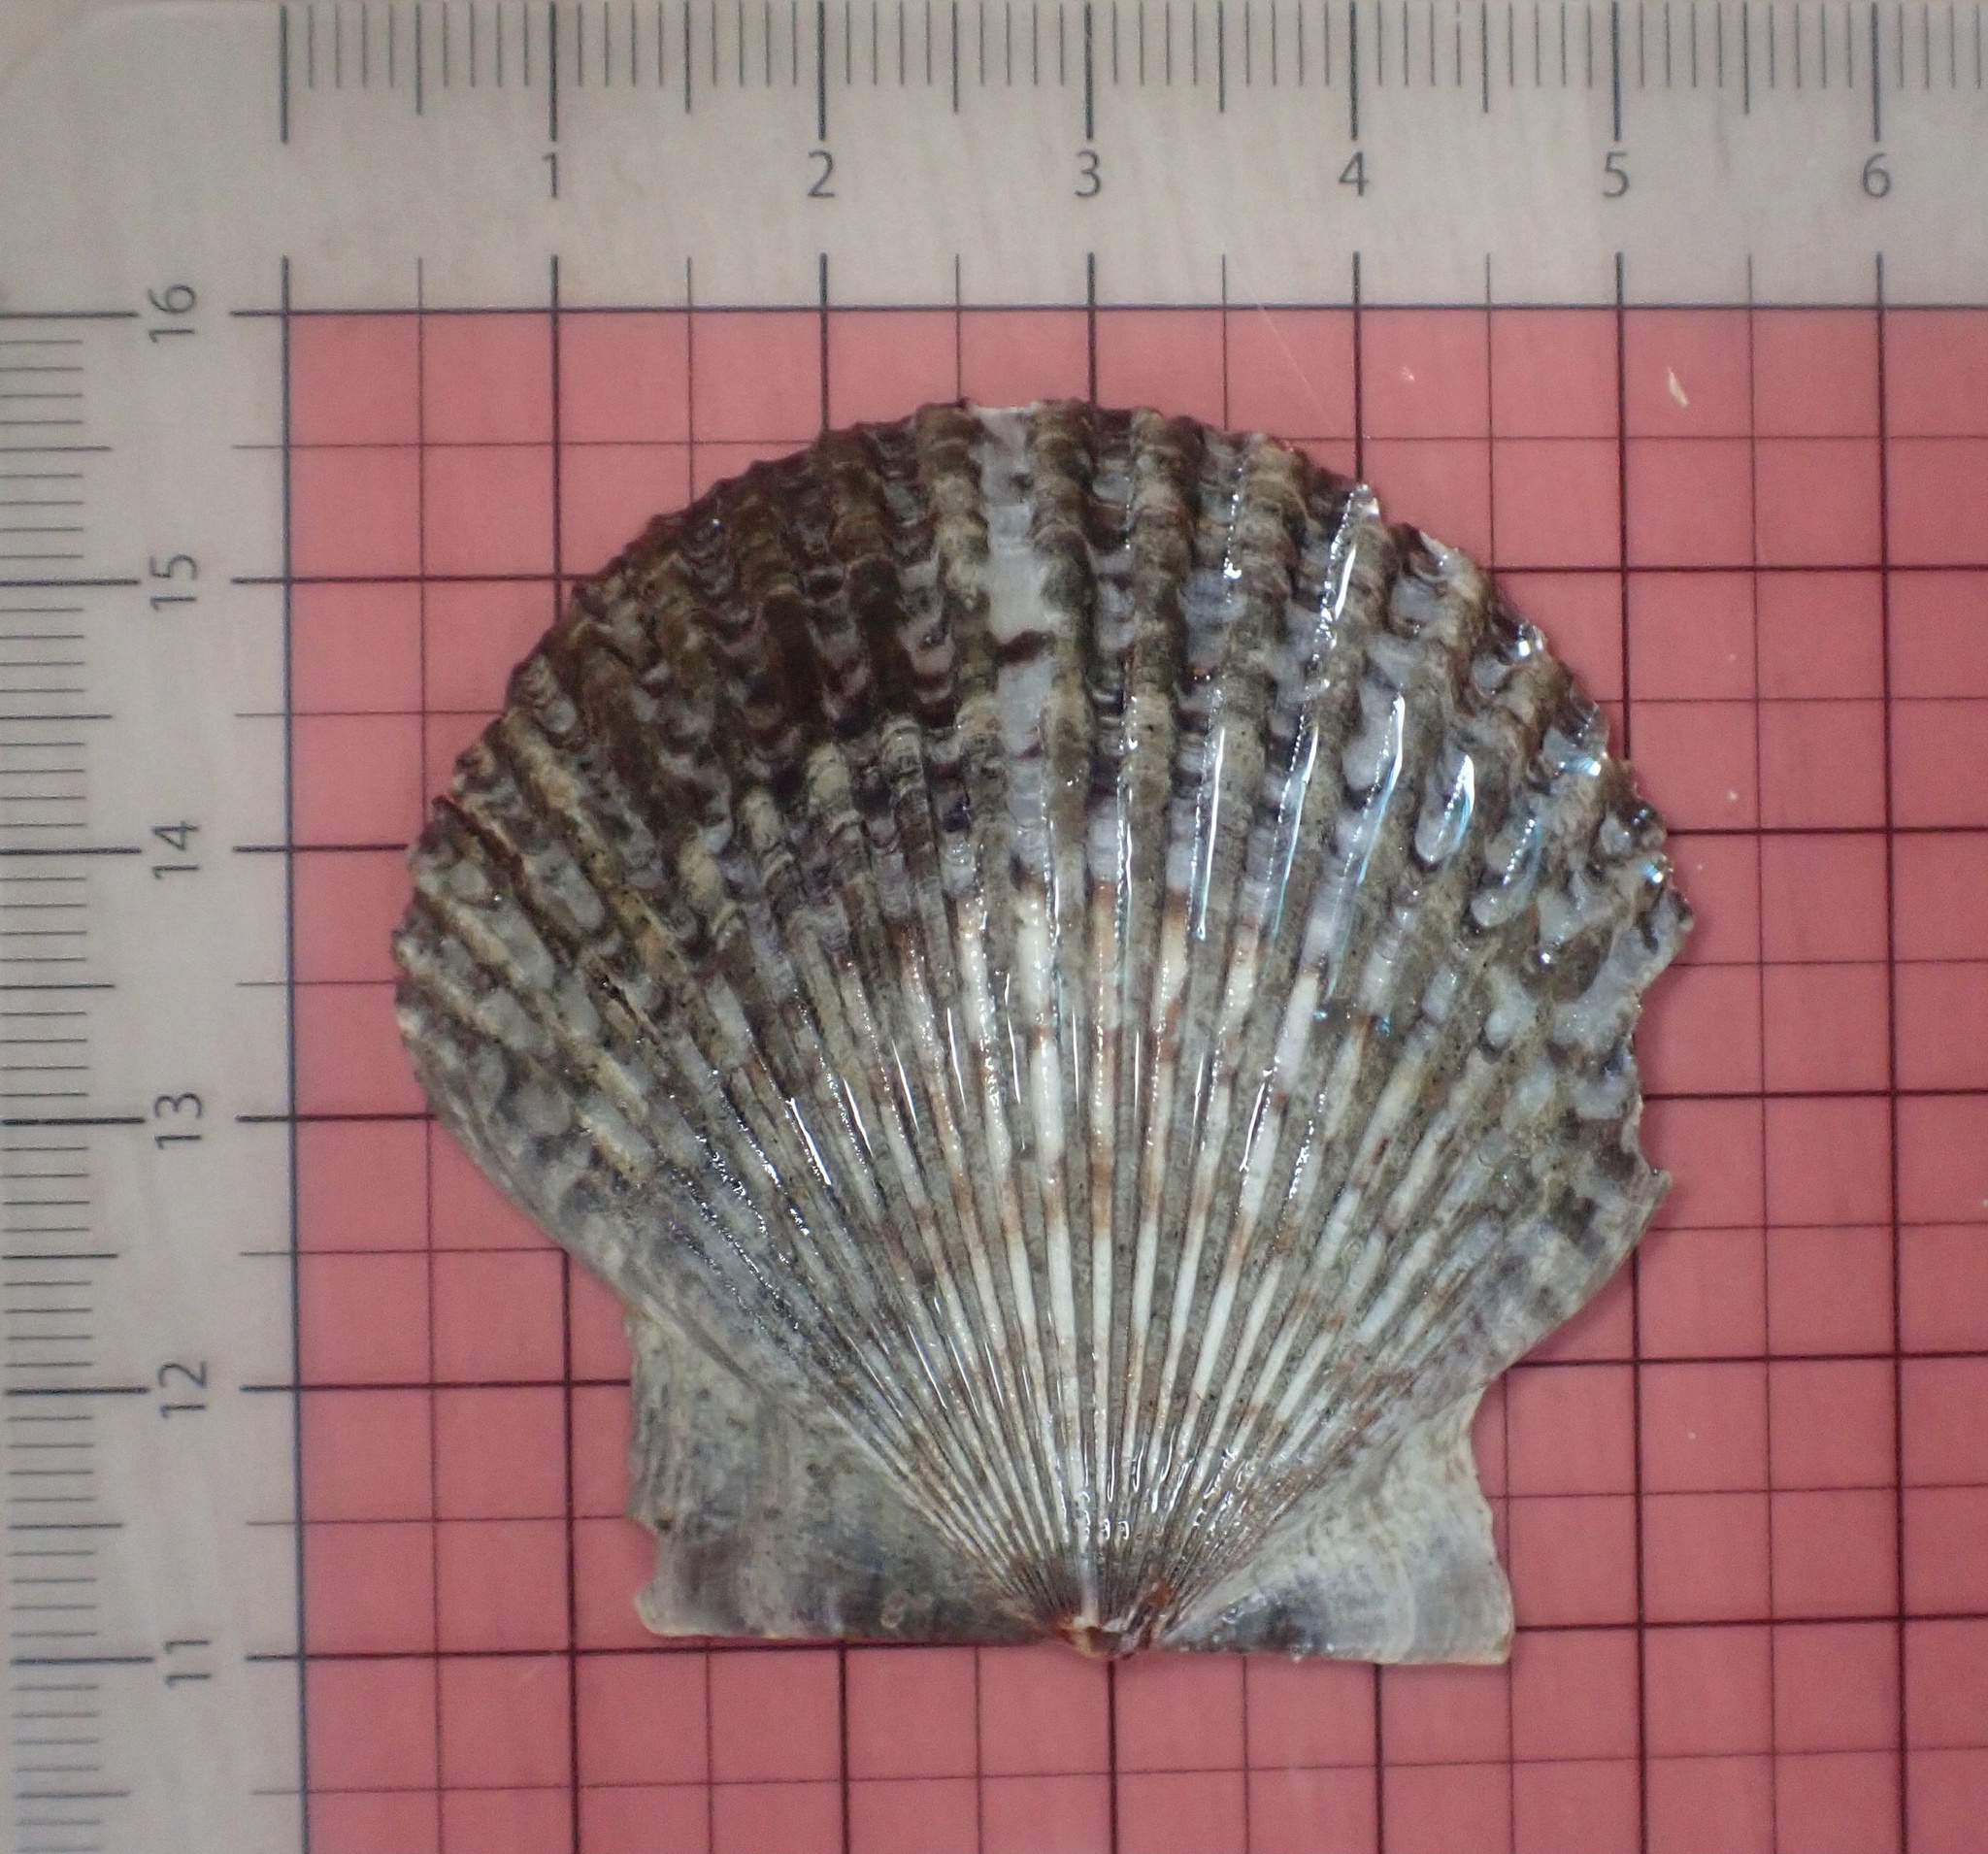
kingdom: Animalia
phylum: Mollusca
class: Bivalvia
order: Pectinida
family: Pectinidae
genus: Argopecten
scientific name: Argopecten ventricosus
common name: Catarina scallop
